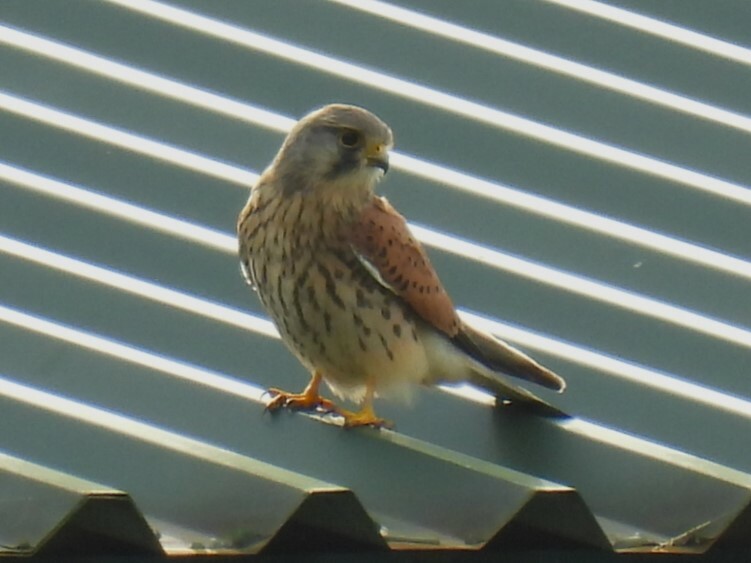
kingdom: Animalia
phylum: Chordata
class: Aves
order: Falconiformes
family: Falconidae
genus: Falco
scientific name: Falco tinnunculus
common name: Common kestrel
